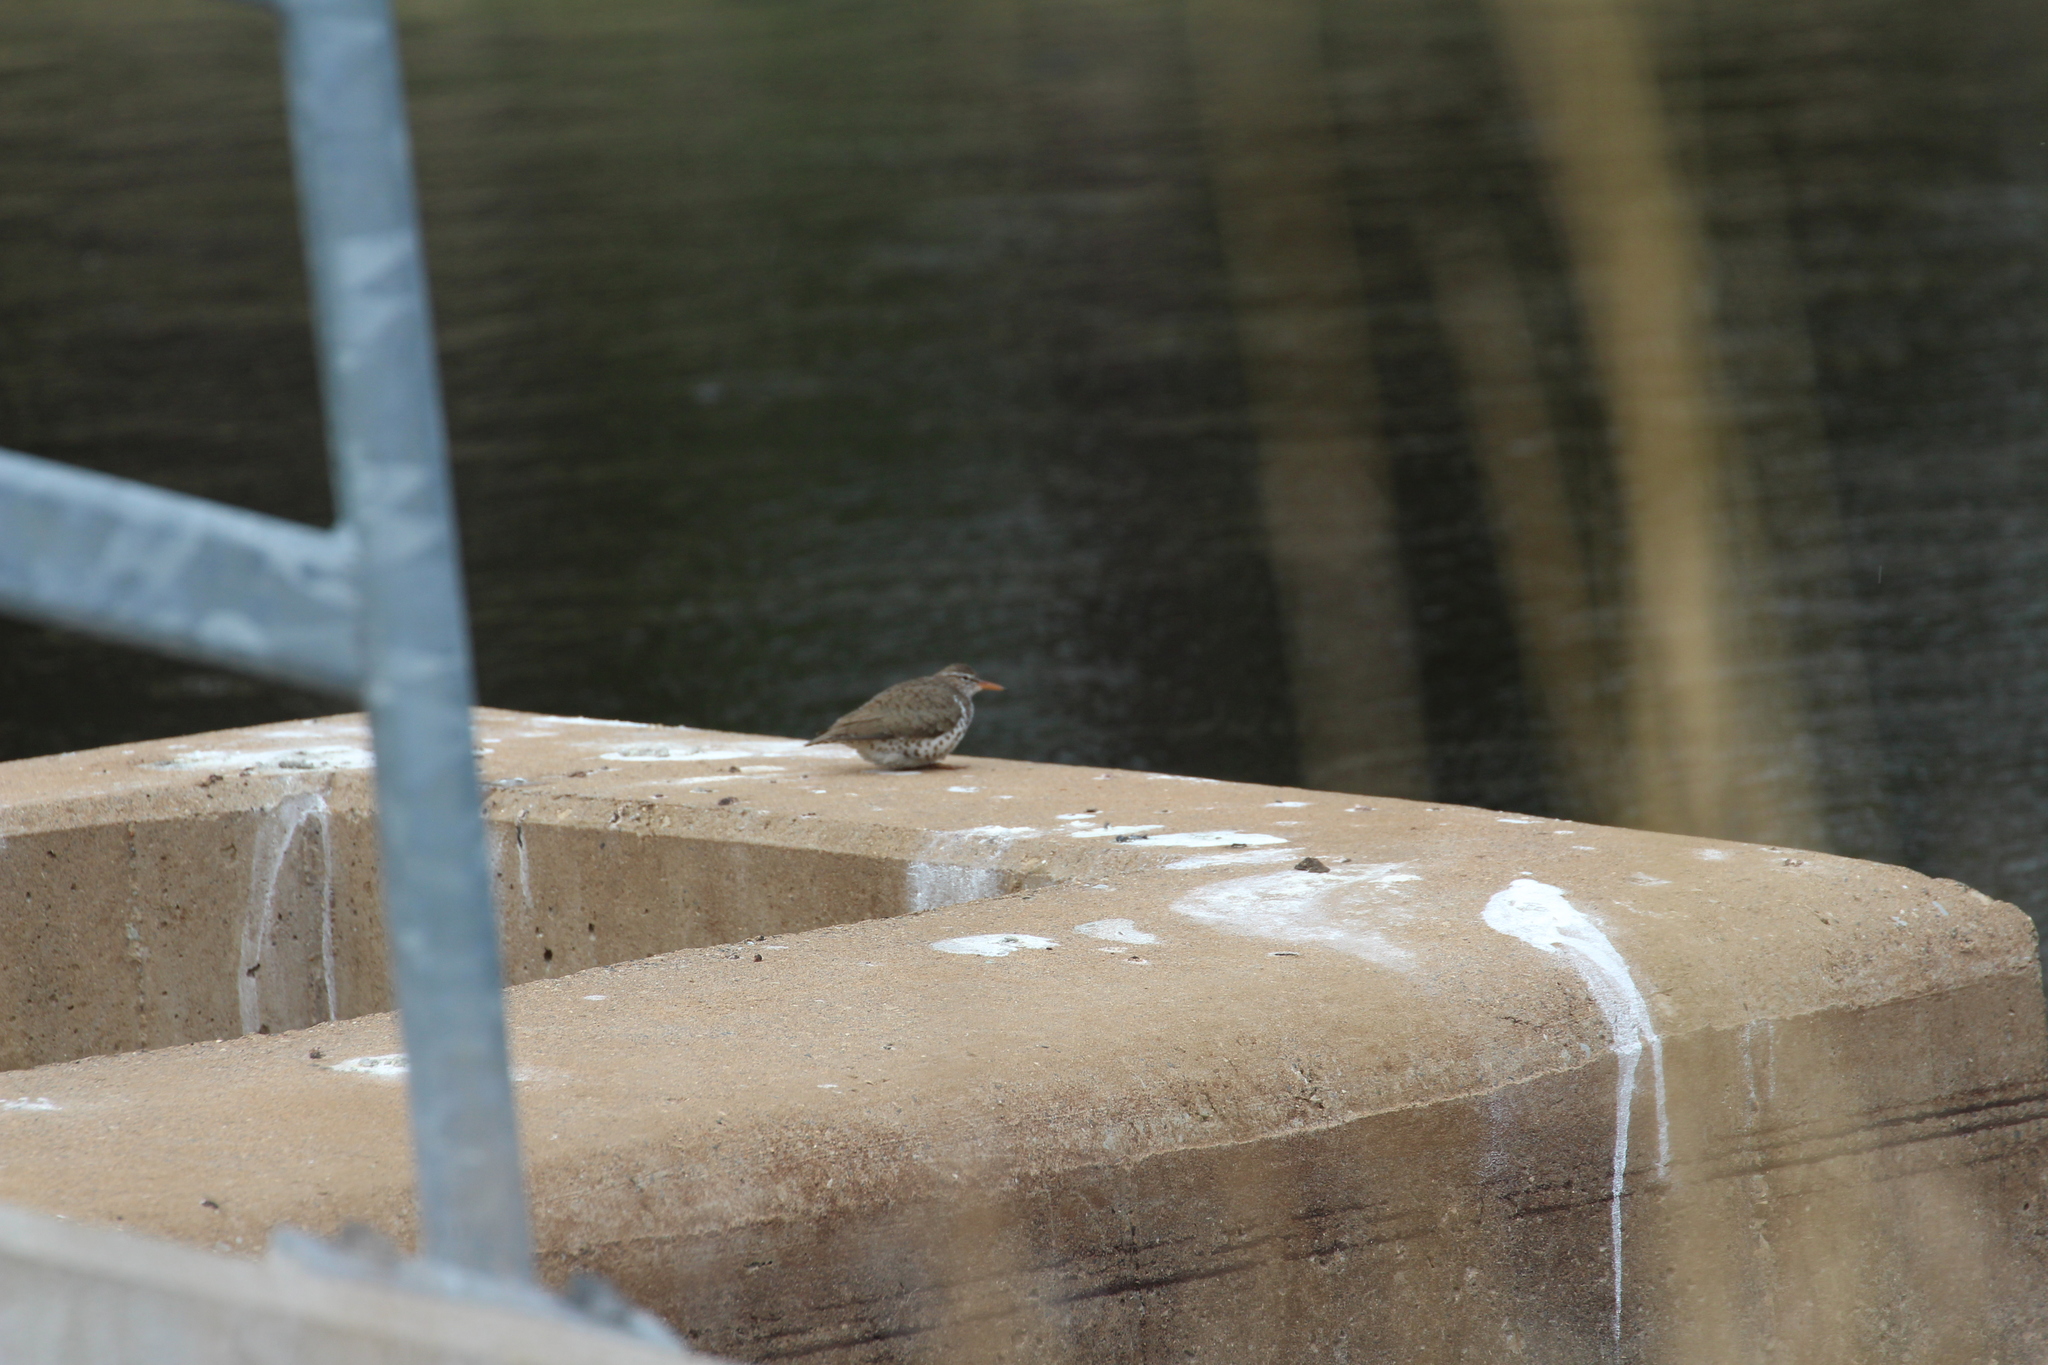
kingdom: Animalia
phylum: Chordata
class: Aves
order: Charadriiformes
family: Scolopacidae
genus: Actitis
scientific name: Actitis macularius
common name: Spotted sandpiper
